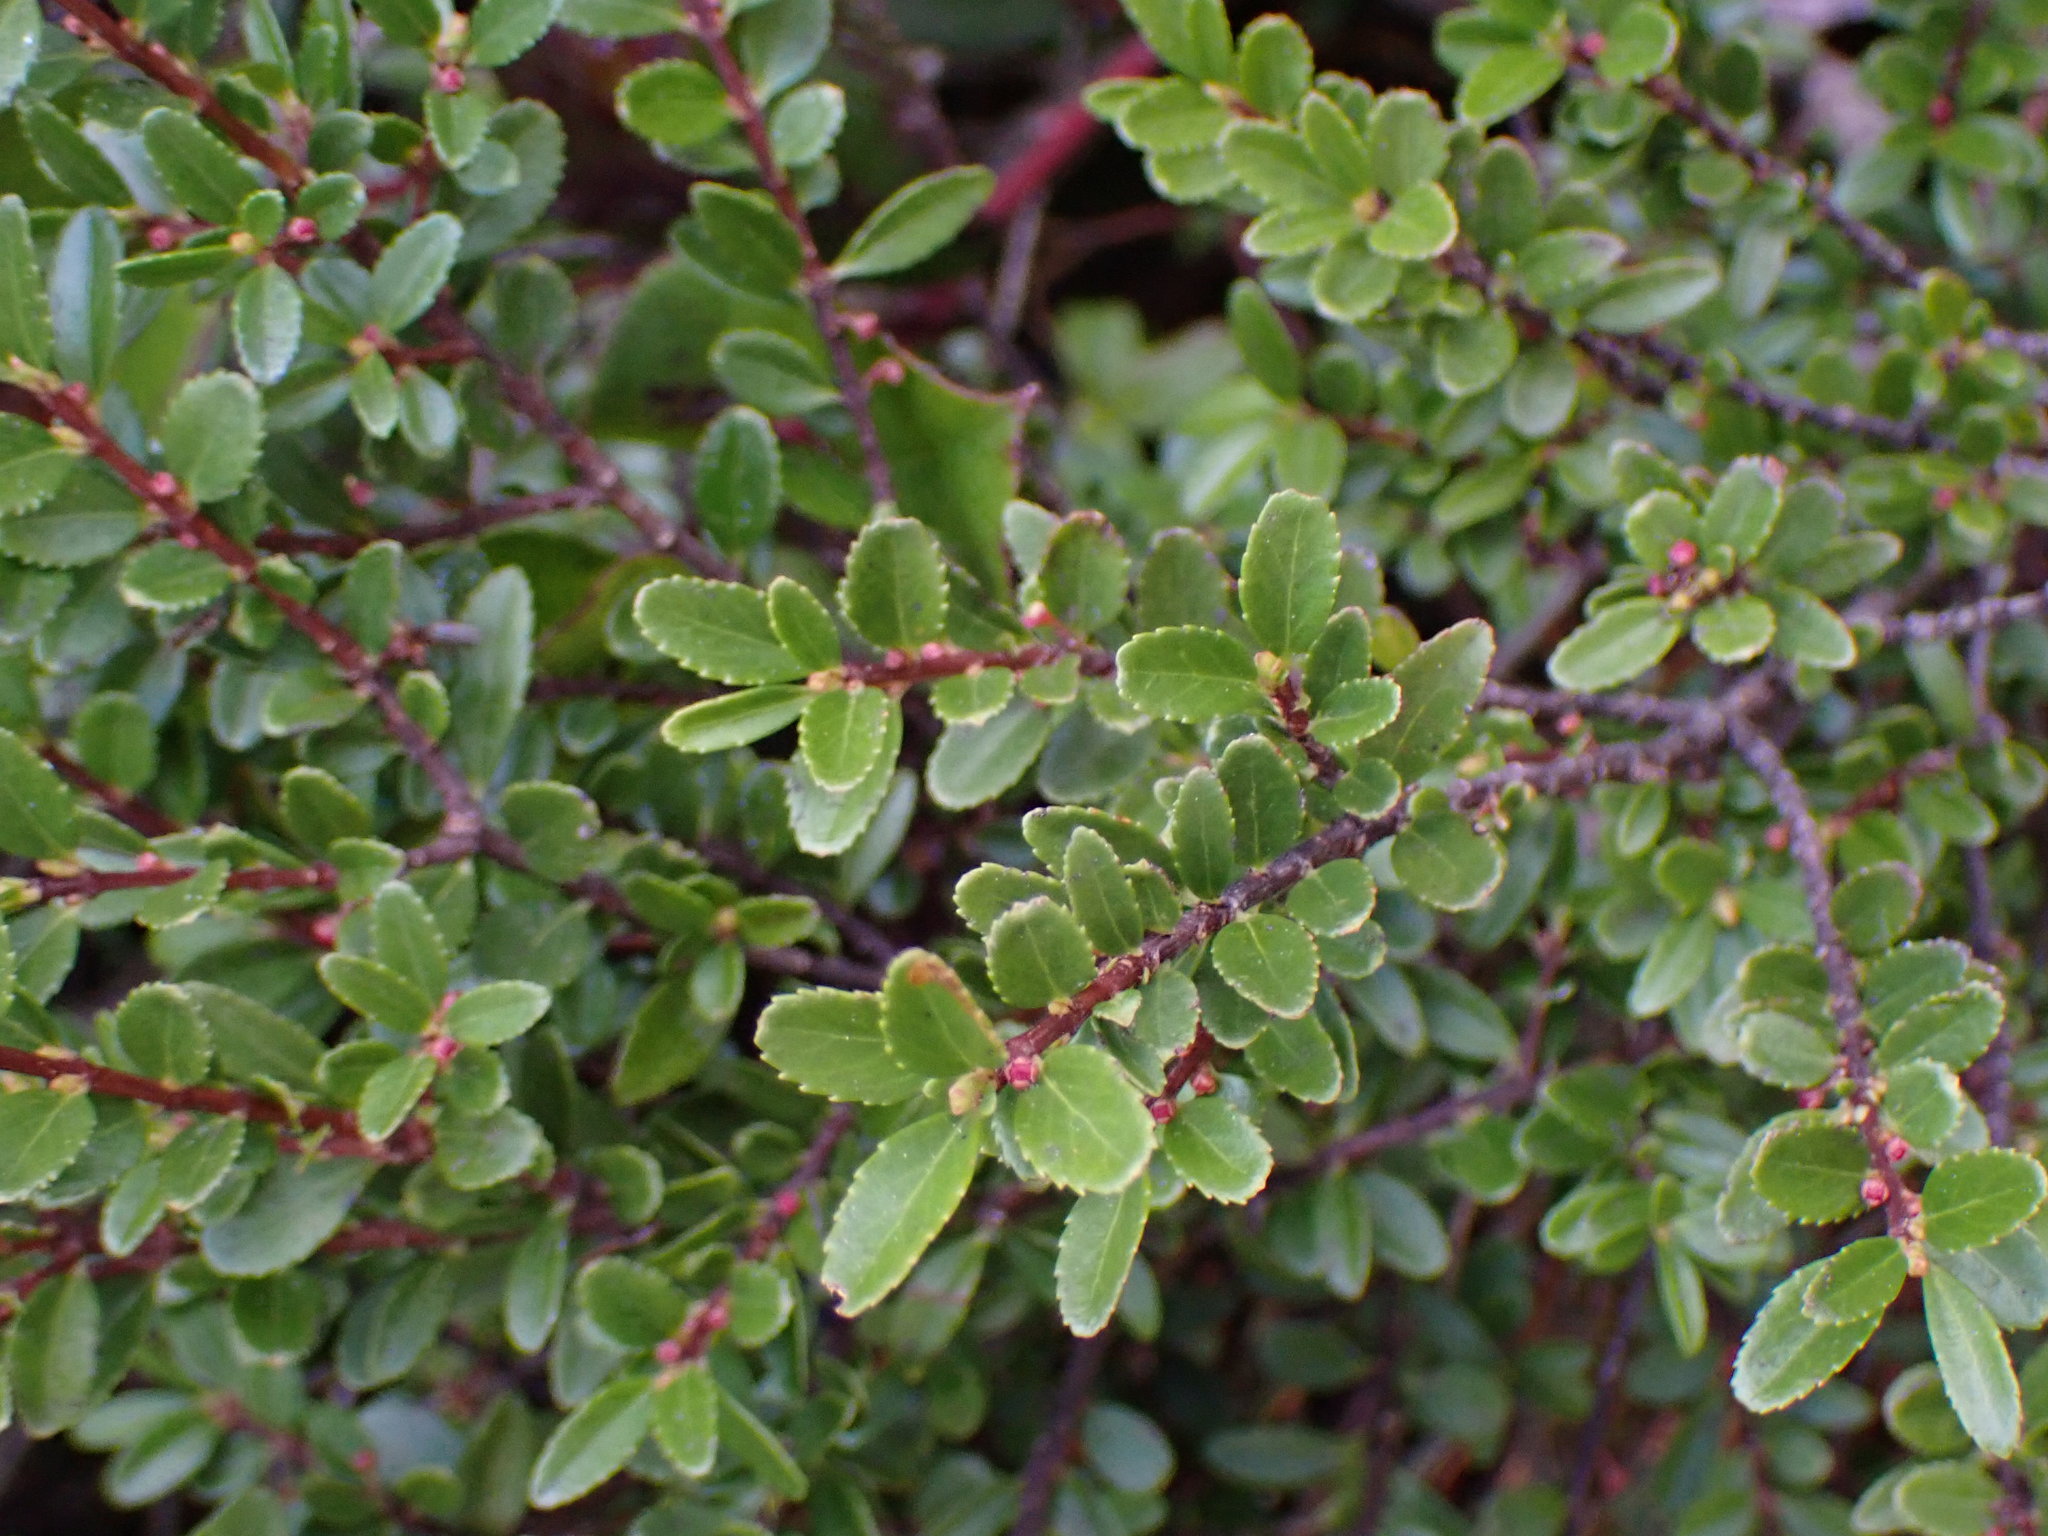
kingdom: Plantae
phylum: Tracheophyta
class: Magnoliopsida
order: Celastrales
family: Celastraceae
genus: Paxistima
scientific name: Paxistima myrsinites
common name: Mountain-lover
